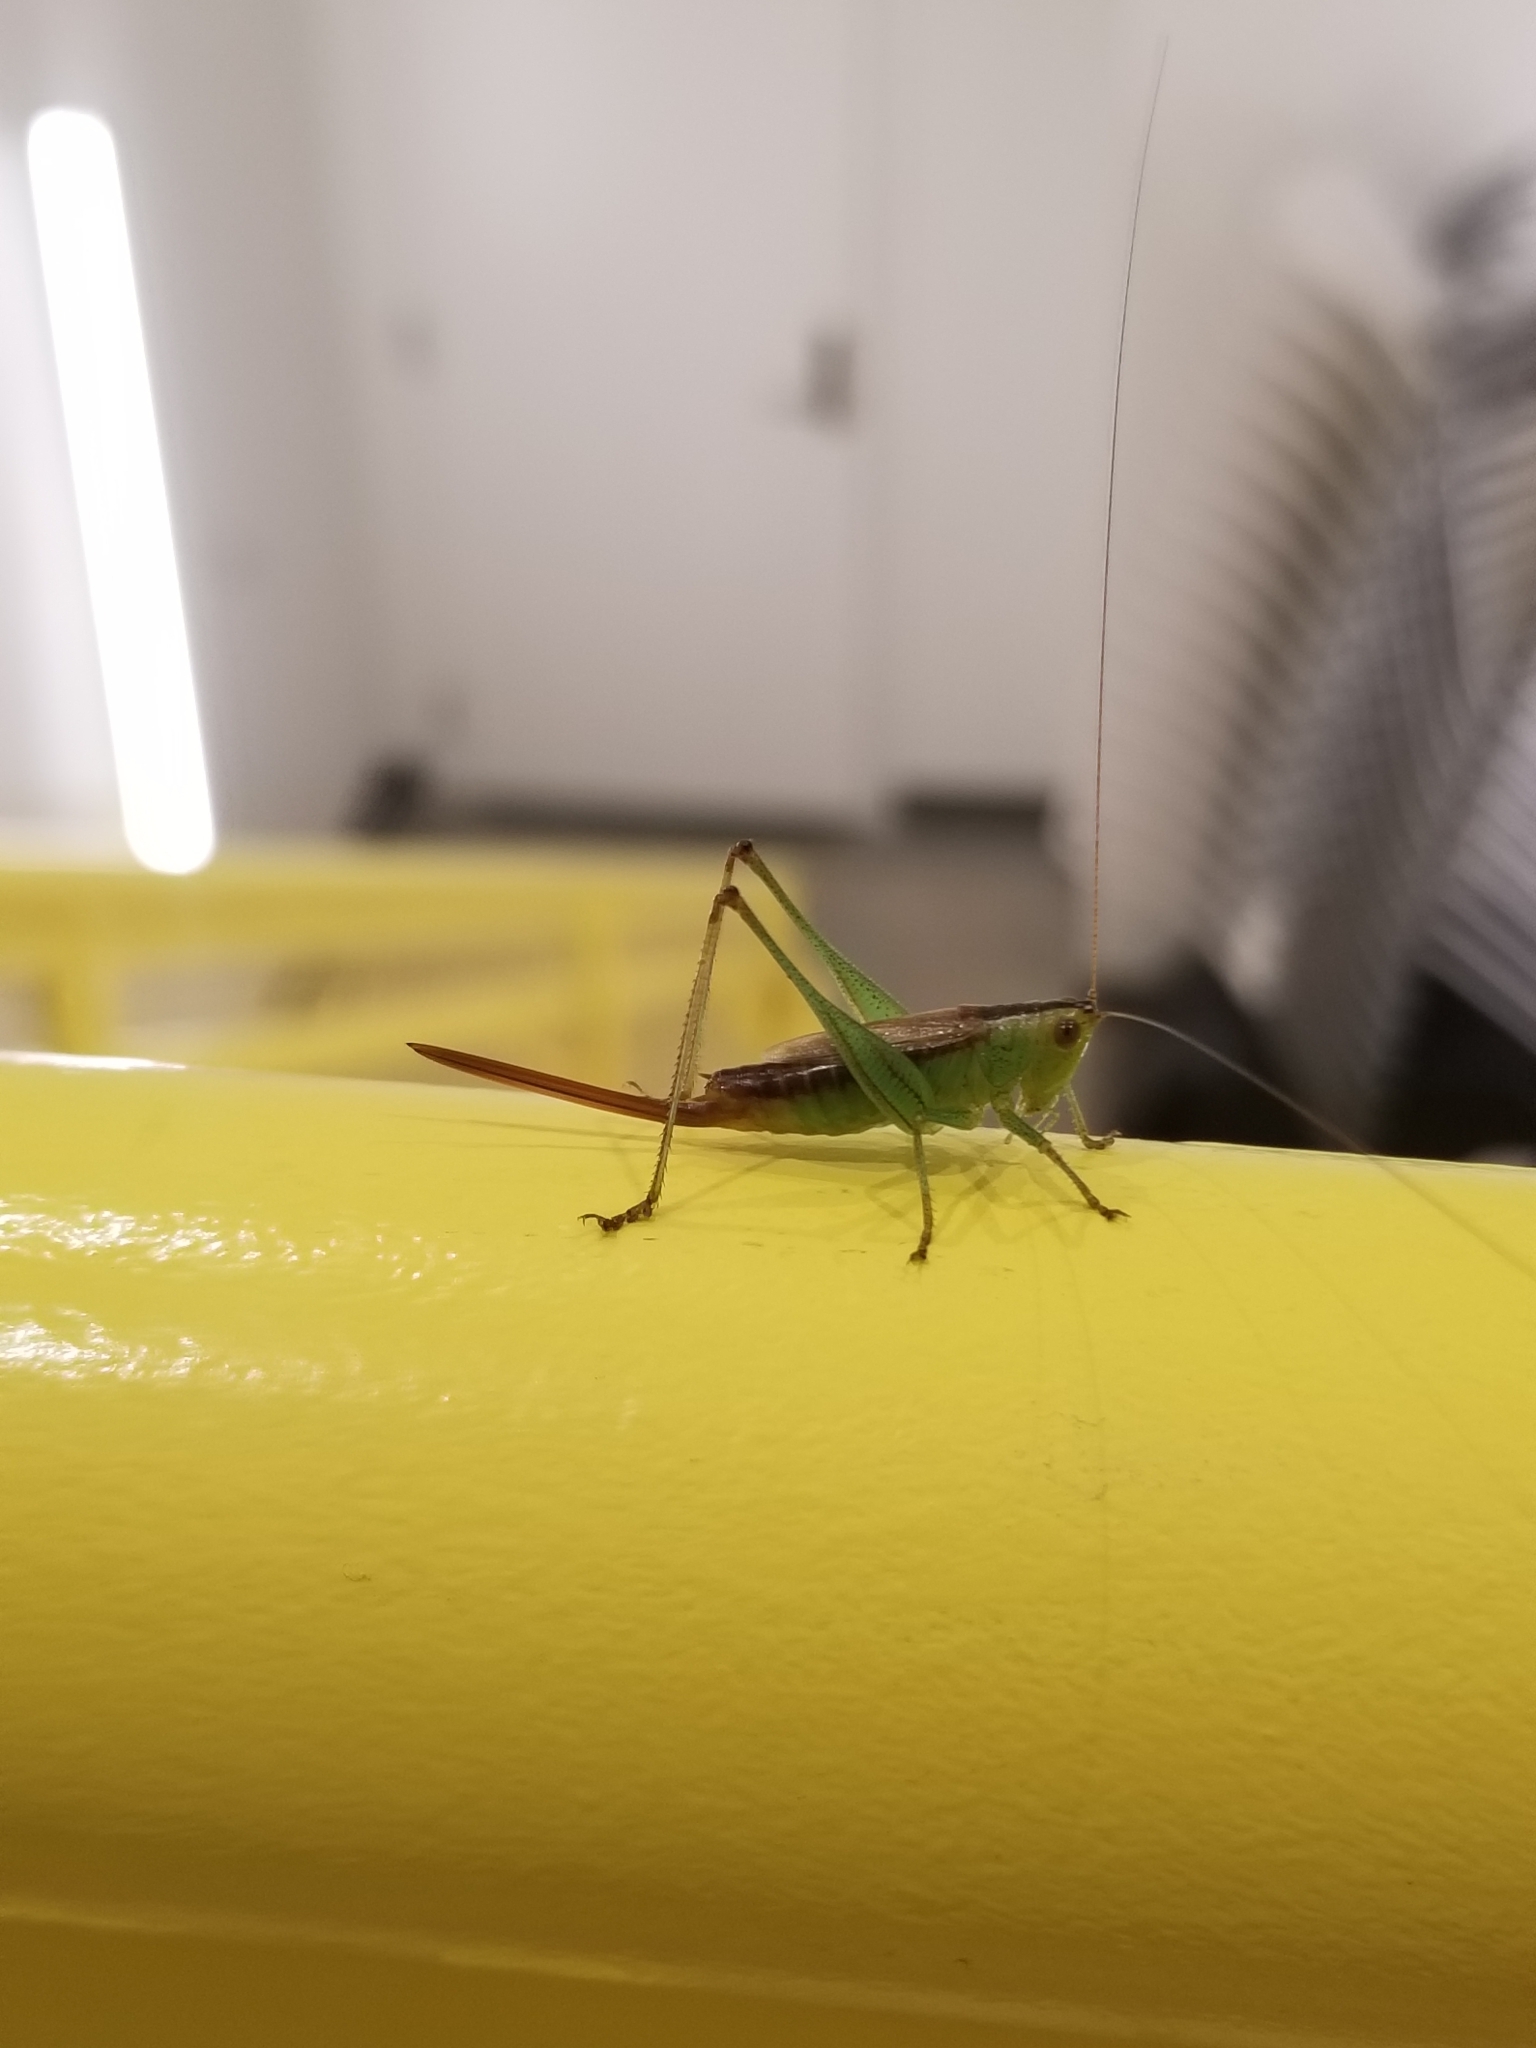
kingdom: Animalia
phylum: Arthropoda
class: Insecta
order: Orthoptera
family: Tettigoniidae
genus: Conocephalus
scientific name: Conocephalus brevipennis
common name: Short-winged meadow katydid
